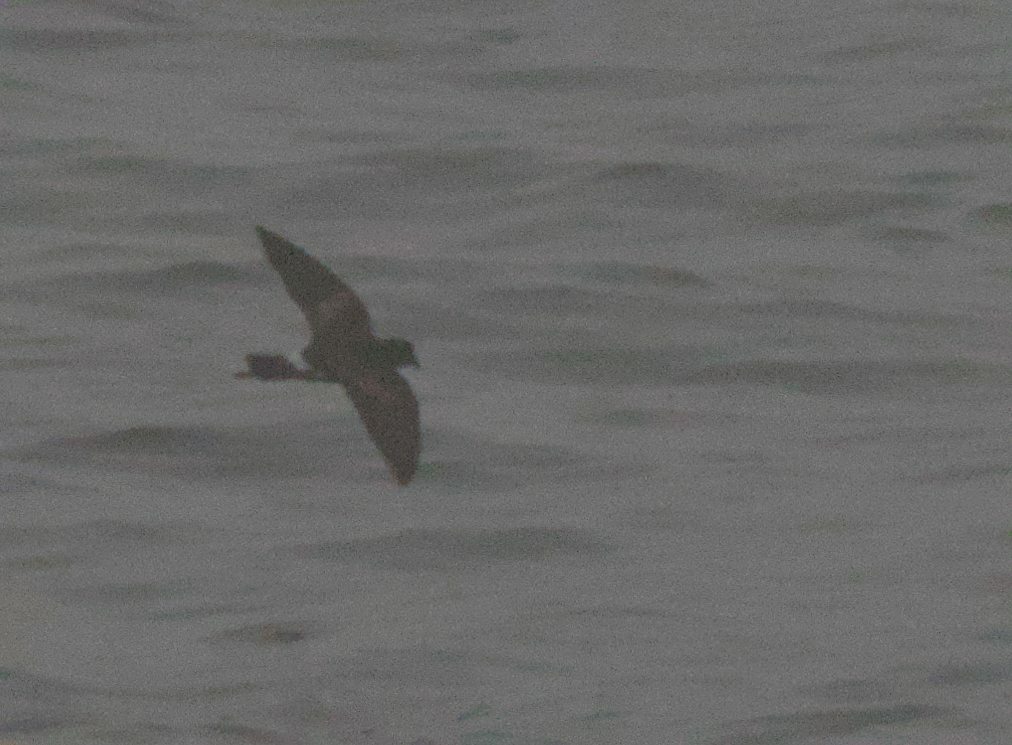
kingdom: Animalia
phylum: Chordata
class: Aves
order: Procellariiformes
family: Hydrobatidae
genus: Oceanites
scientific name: Oceanites oceanicus
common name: Wilson's storm petrel
